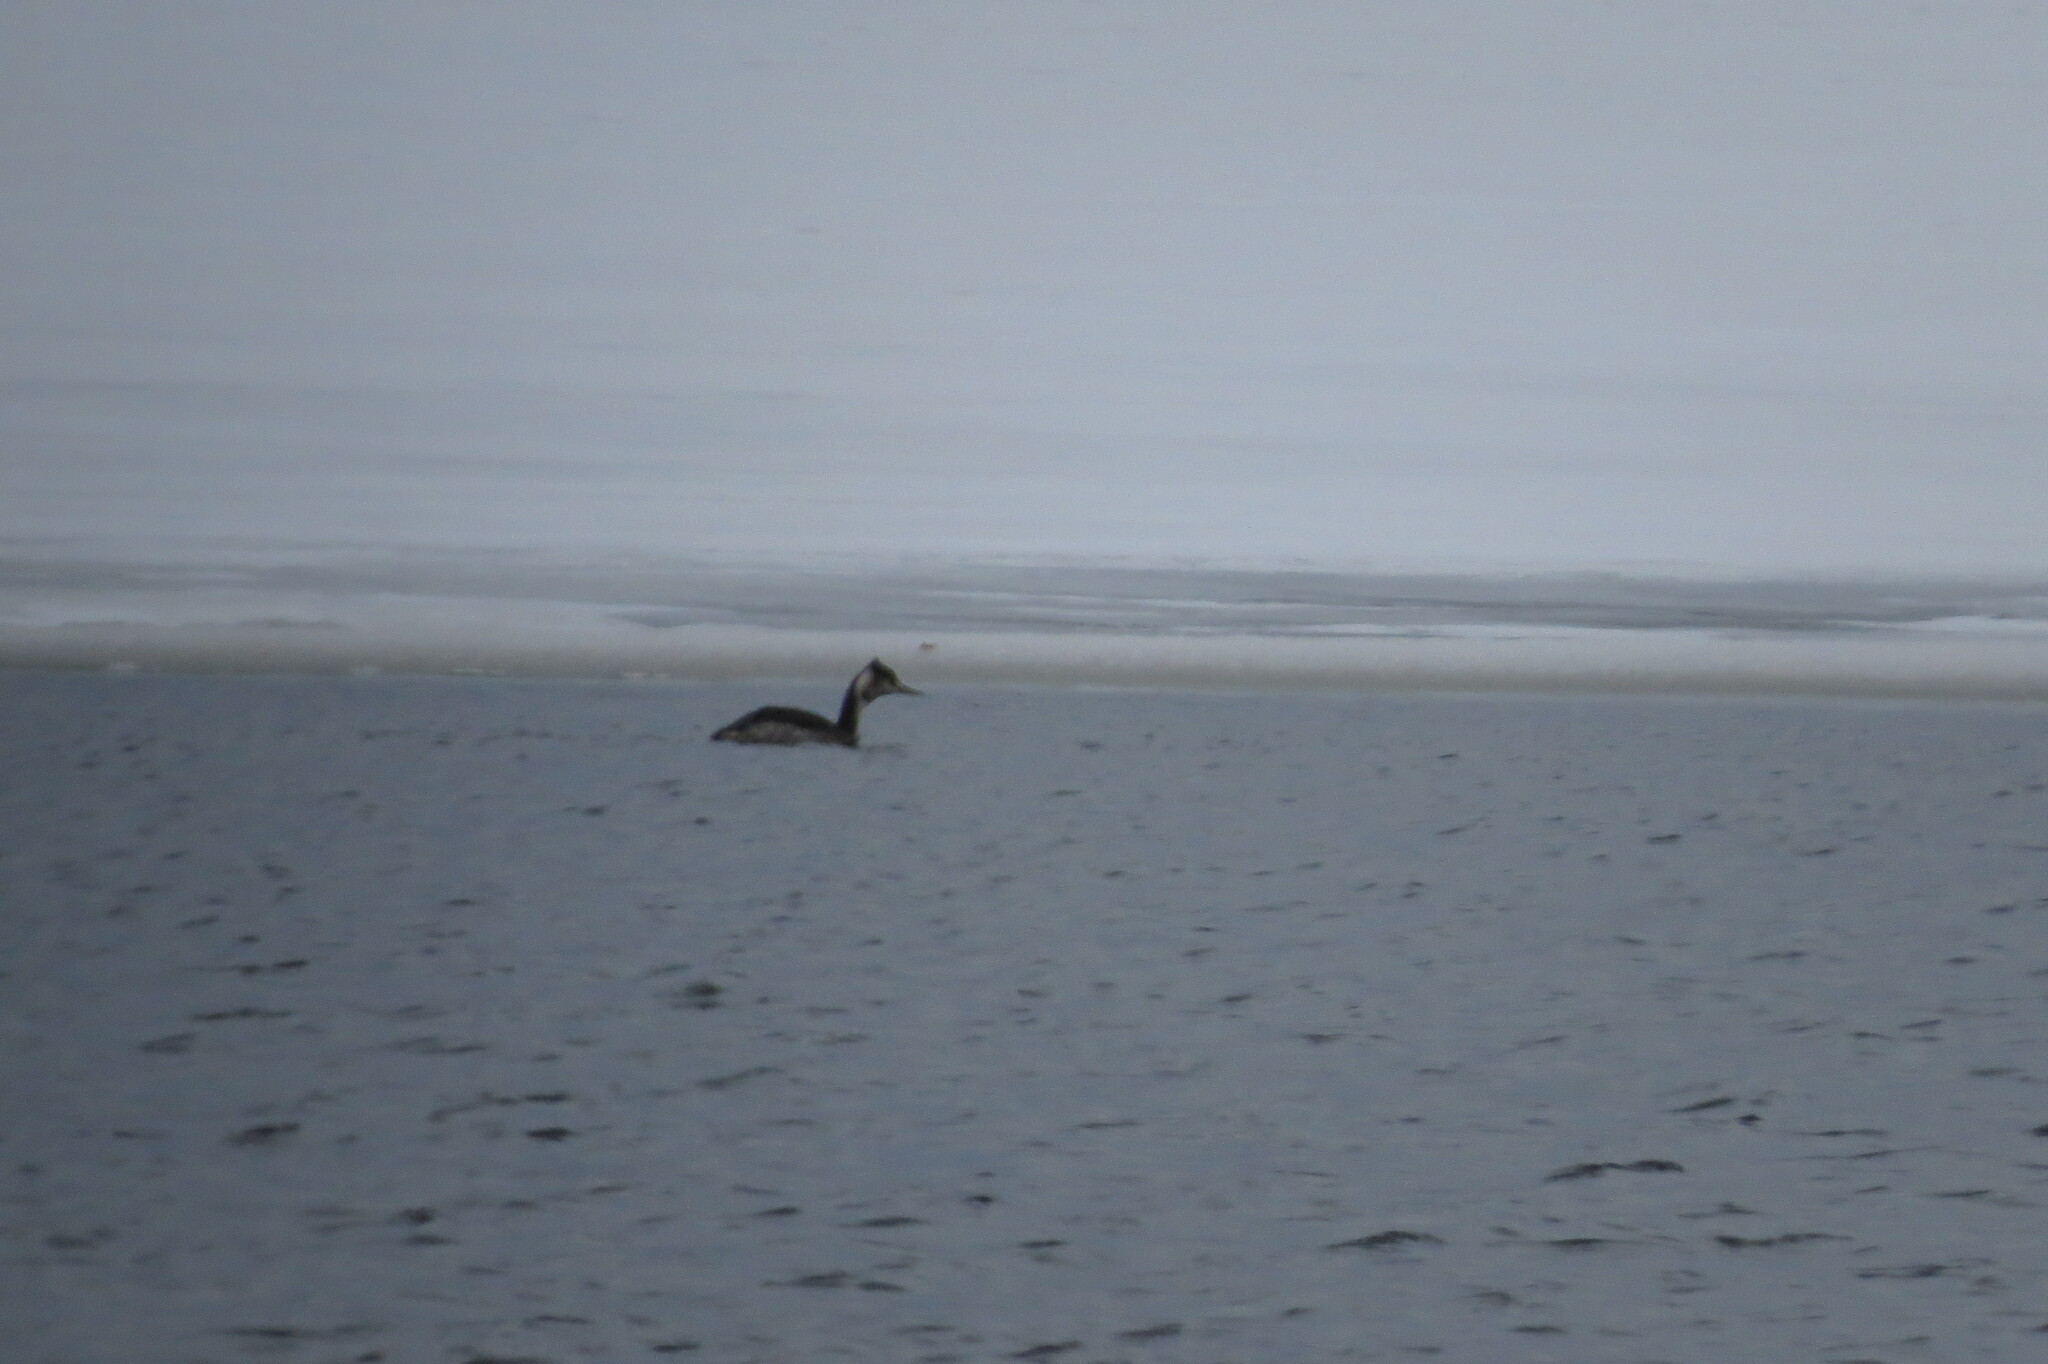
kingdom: Animalia
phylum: Chordata
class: Aves
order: Podicipediformes
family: Podicipedidae
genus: Podiceps
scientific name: Podiceps cristatus
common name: Great crested grebe
